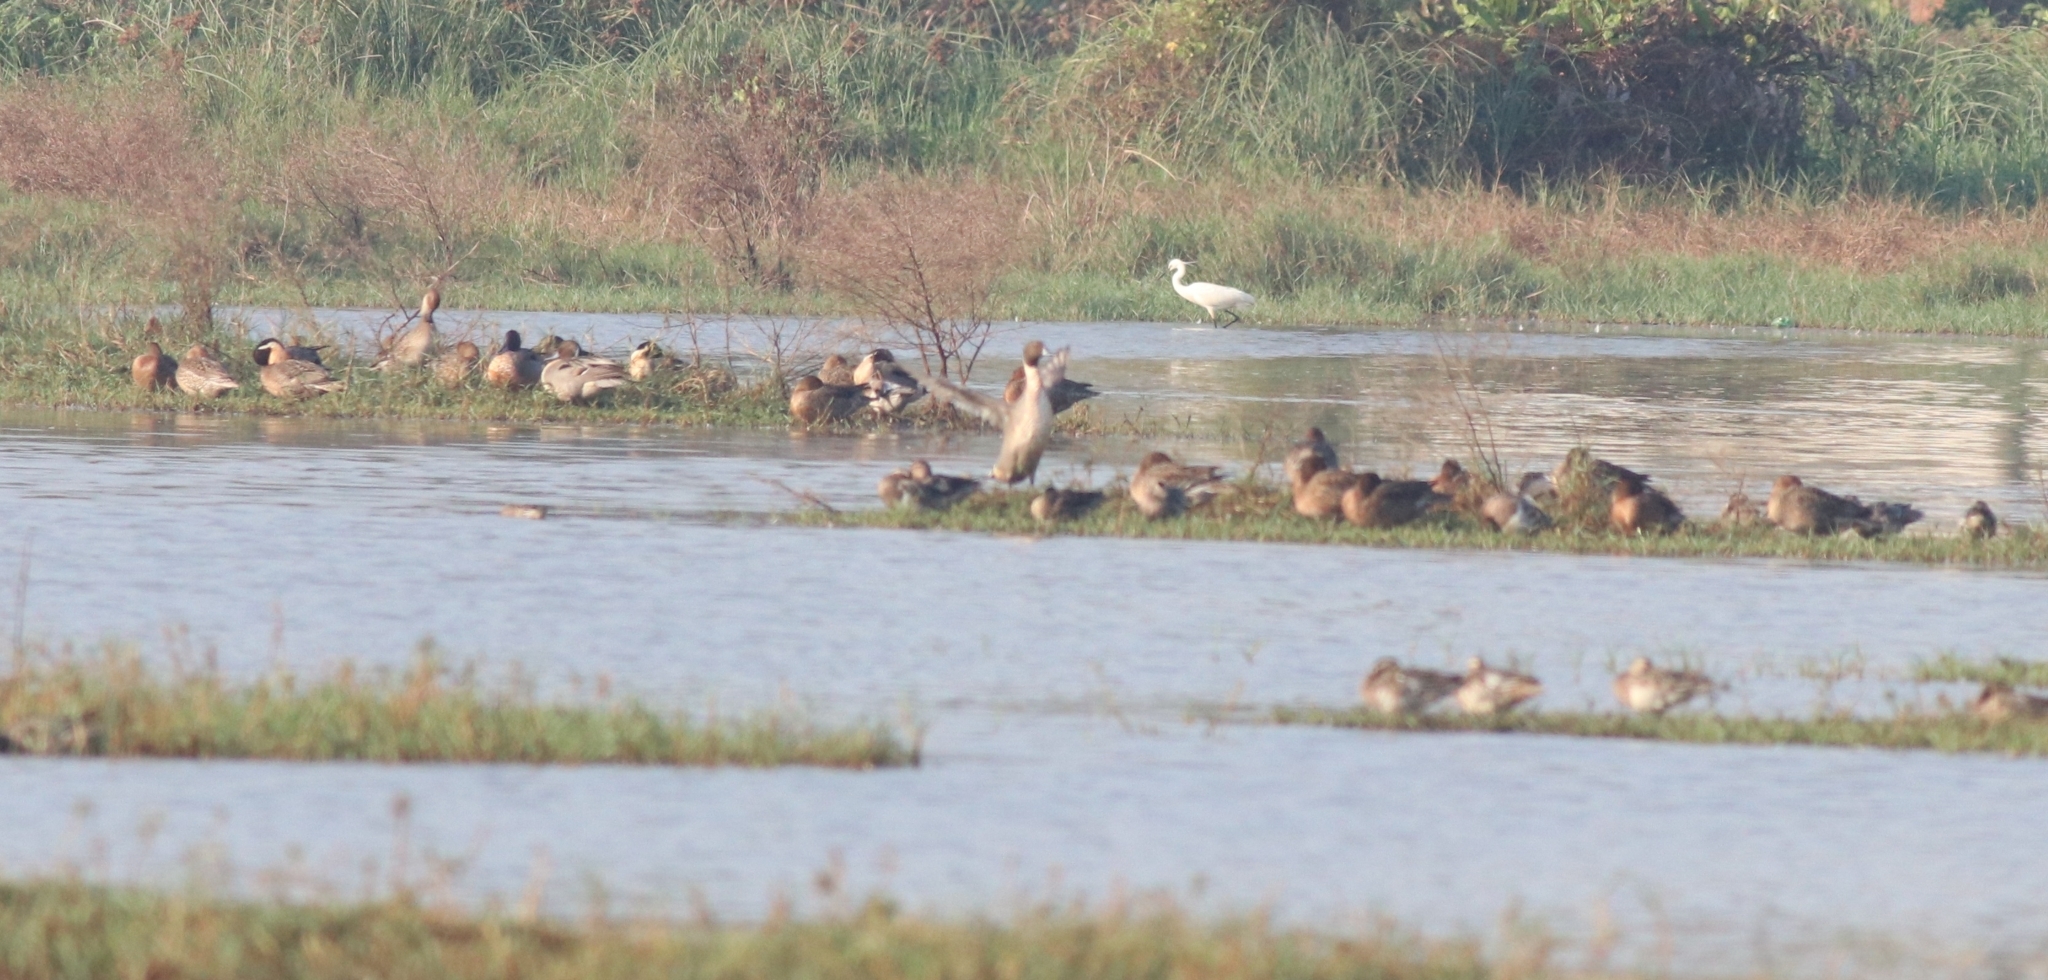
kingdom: Animalia
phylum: Chordata
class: Aves
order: Anseriformes
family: Anatidae
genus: Anas
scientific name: Anas acuta
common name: Northern pintail
